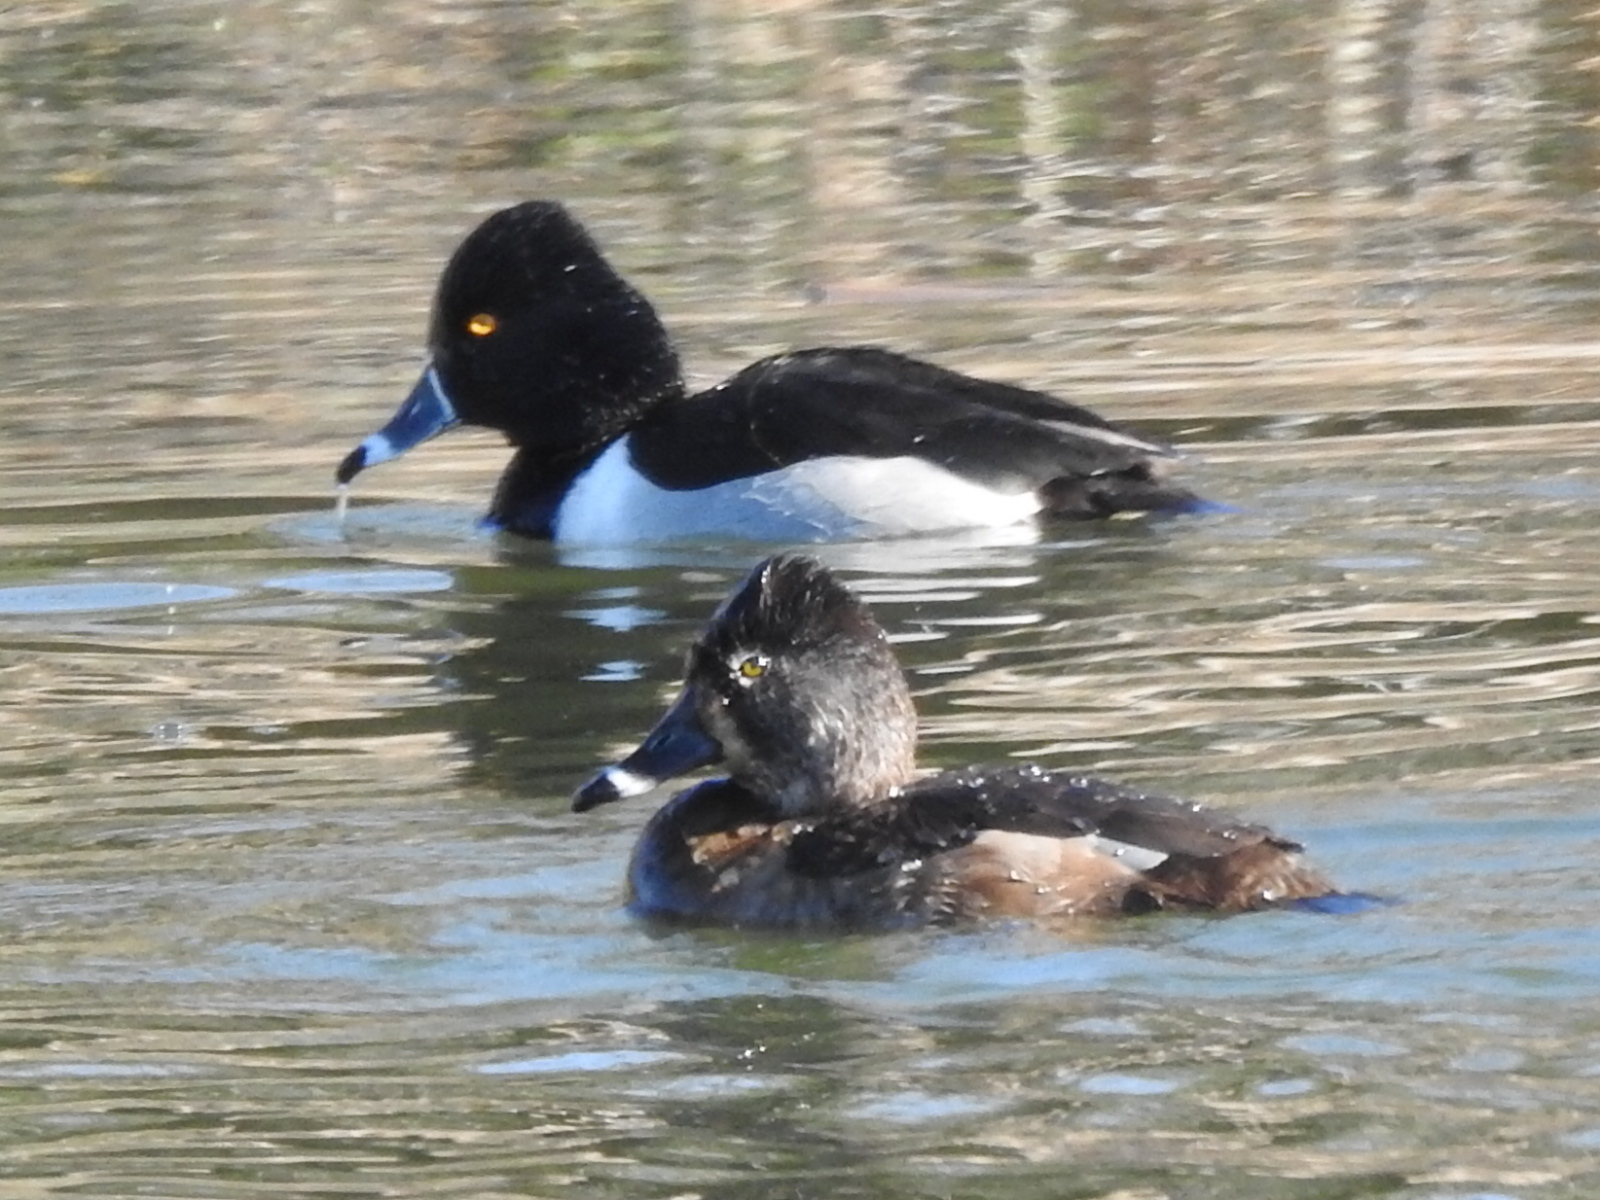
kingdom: Animalia
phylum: Chordata
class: Aves
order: Anseriformes
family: Anatidae
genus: Aythya
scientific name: Aythya collaris
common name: Ring-necked duck
